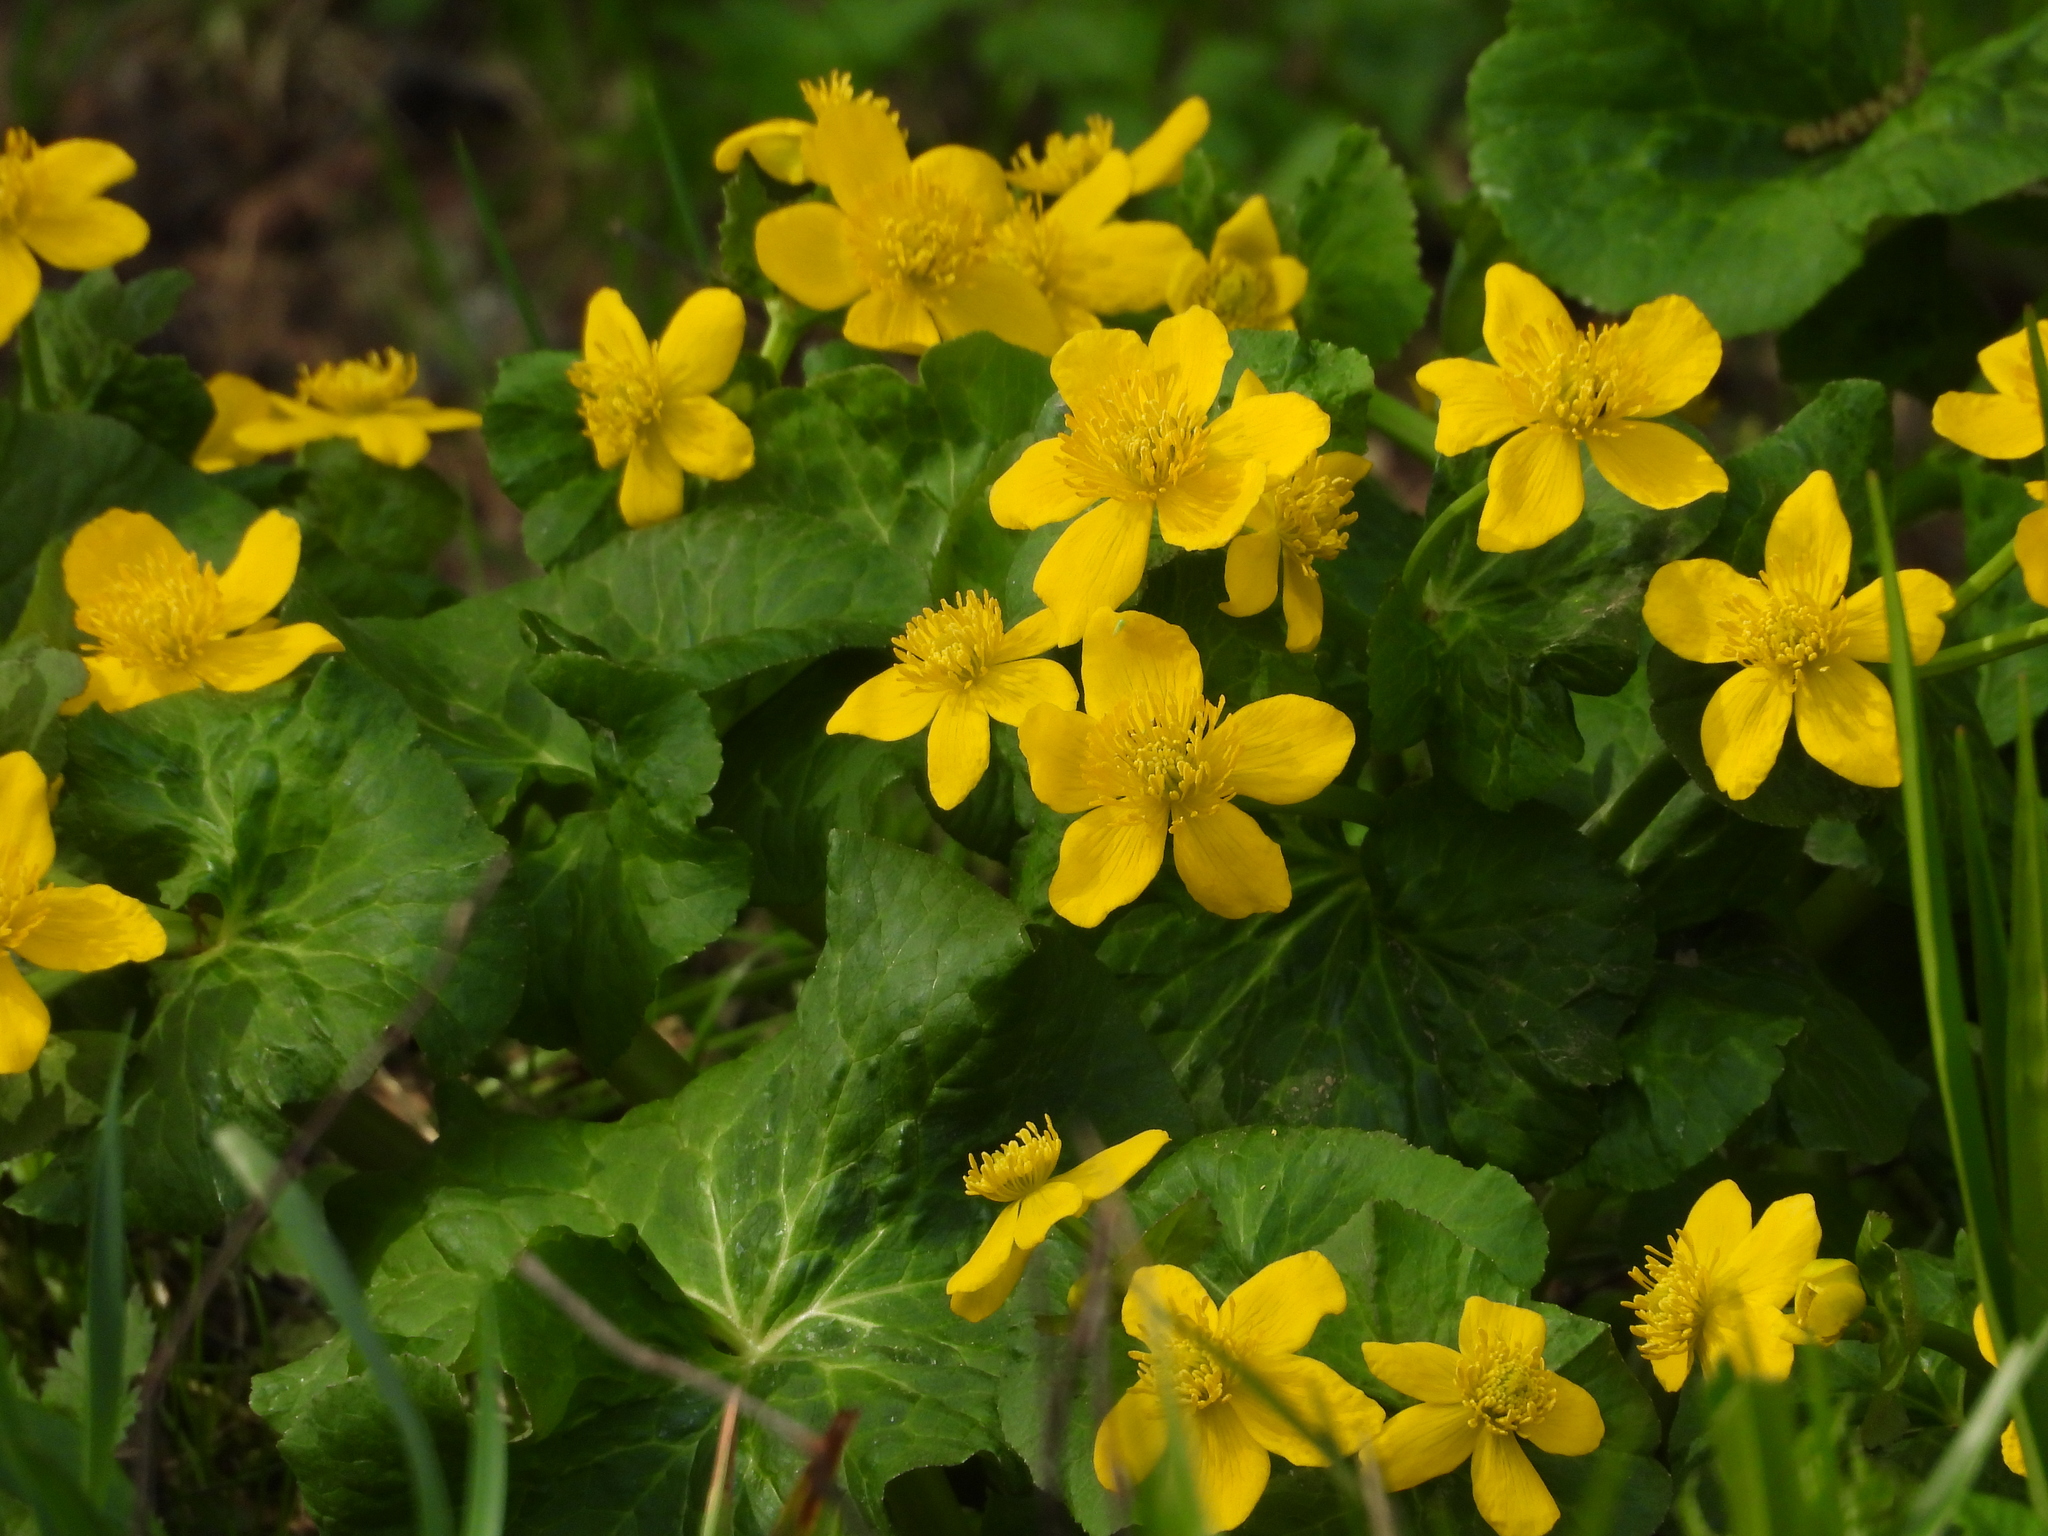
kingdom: Plantae
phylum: Tracheophyta
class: Magnoliopsida
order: Ranunculales
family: Ranunculaceae
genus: Caltha
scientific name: Caltha palustris
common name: Marsh marigold
